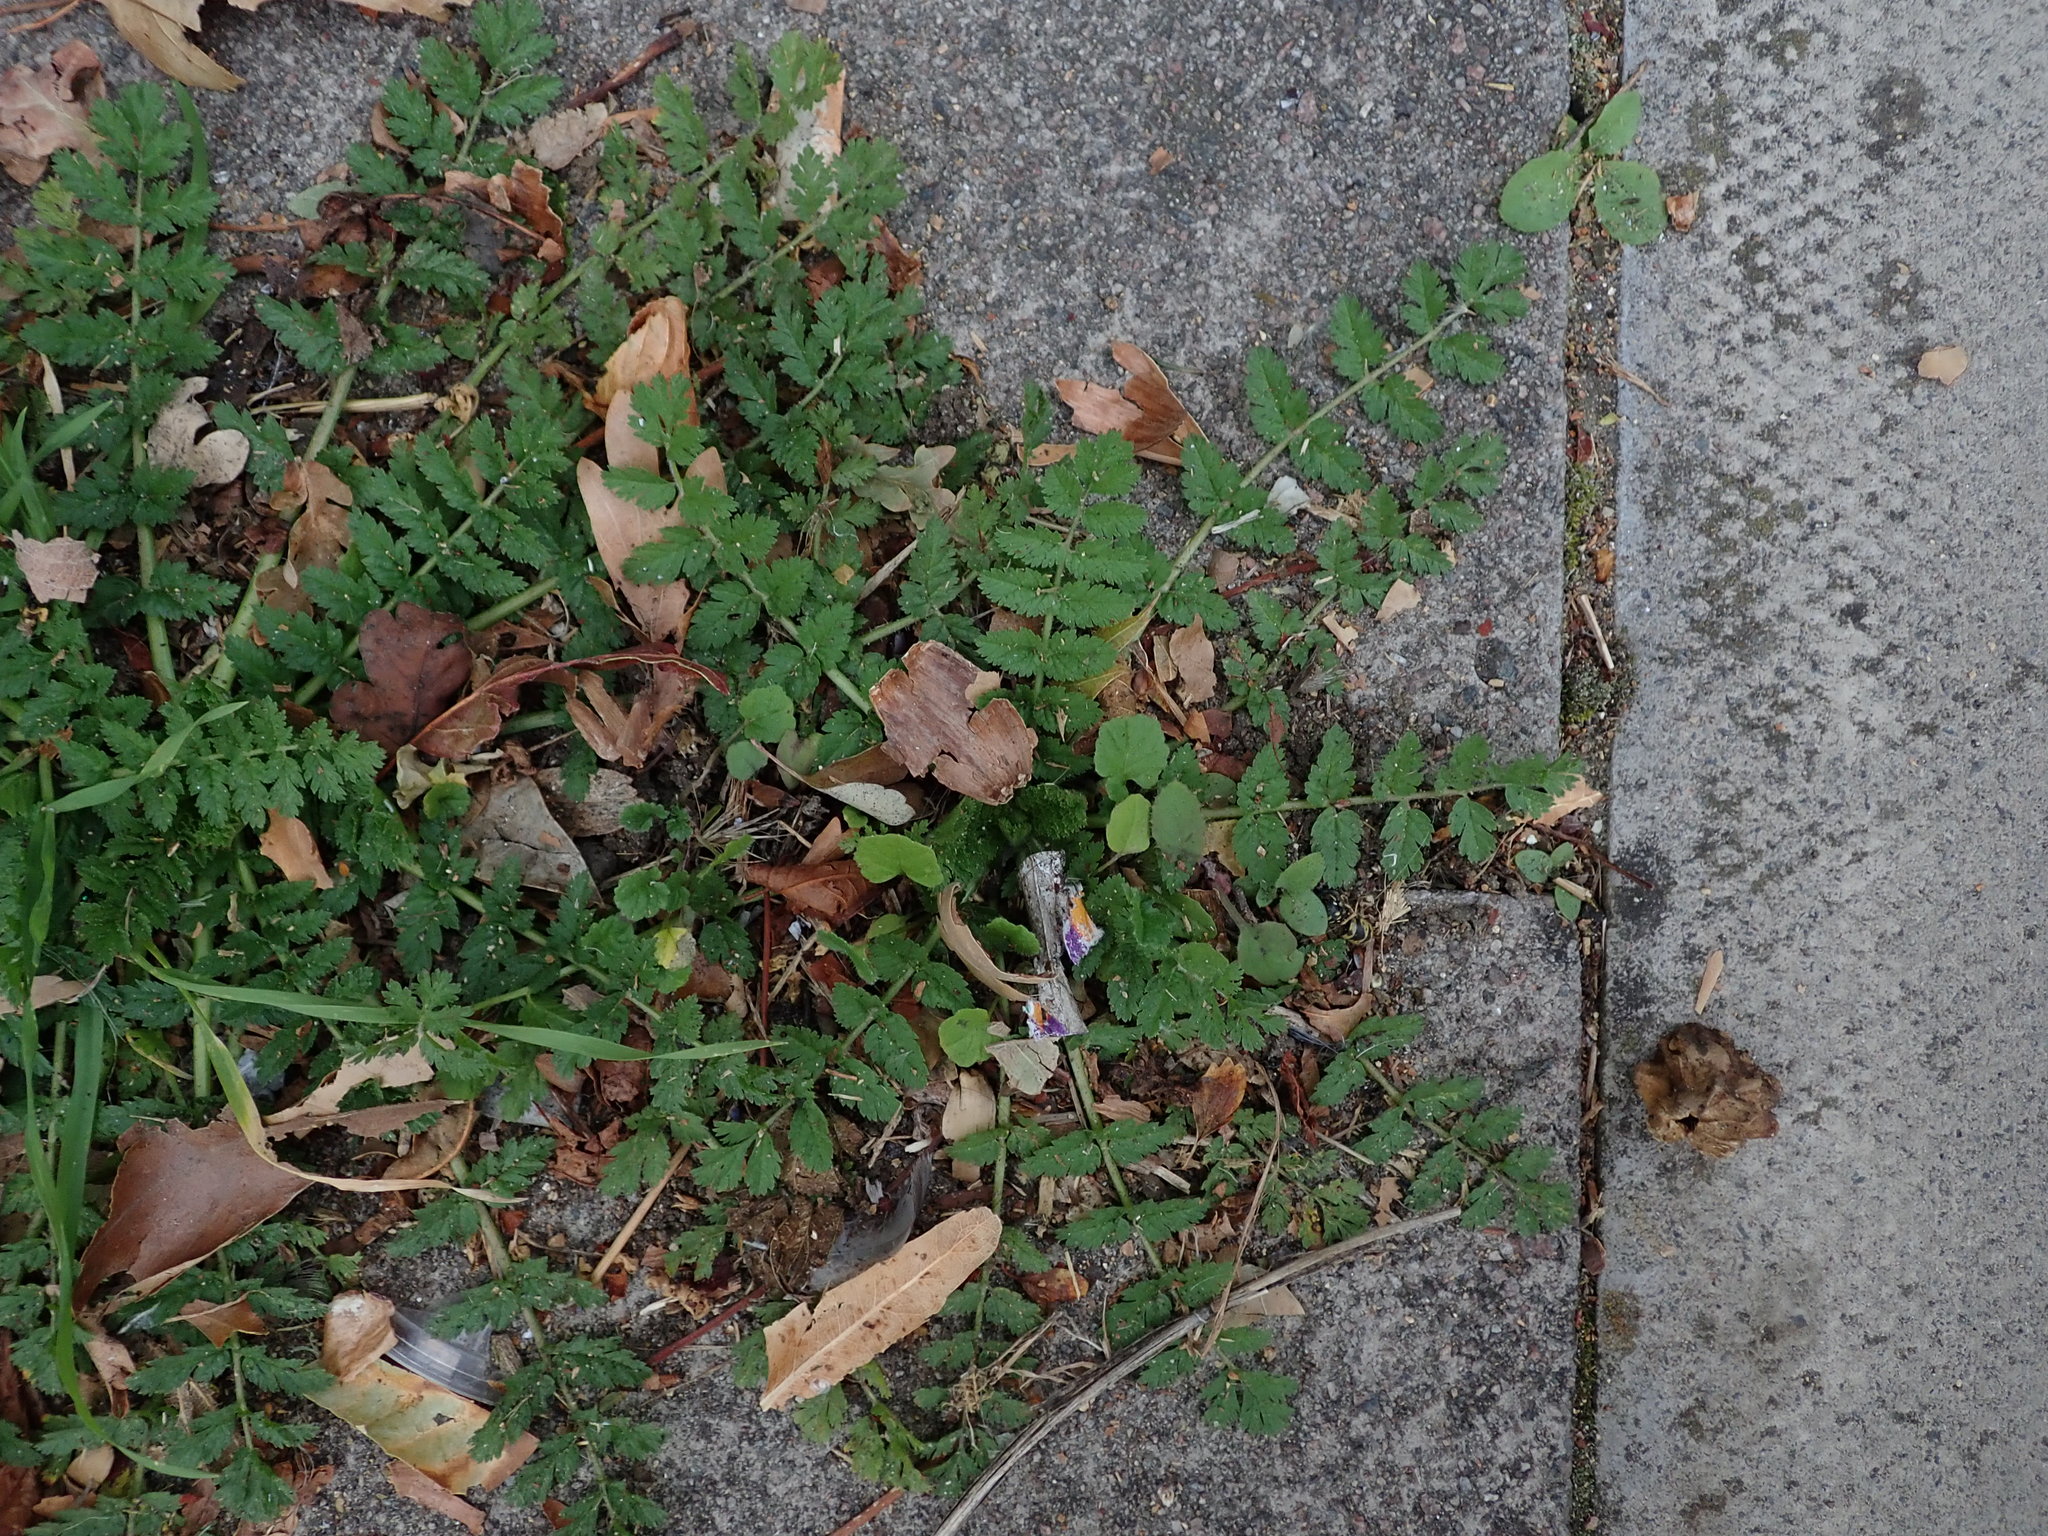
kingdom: Plantae
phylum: Tracheophyta
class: Magnoliopsida
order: Geraniales
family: Geraniaceae
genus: Erodium
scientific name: Erodium moschatum
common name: Musk stork's-bill
